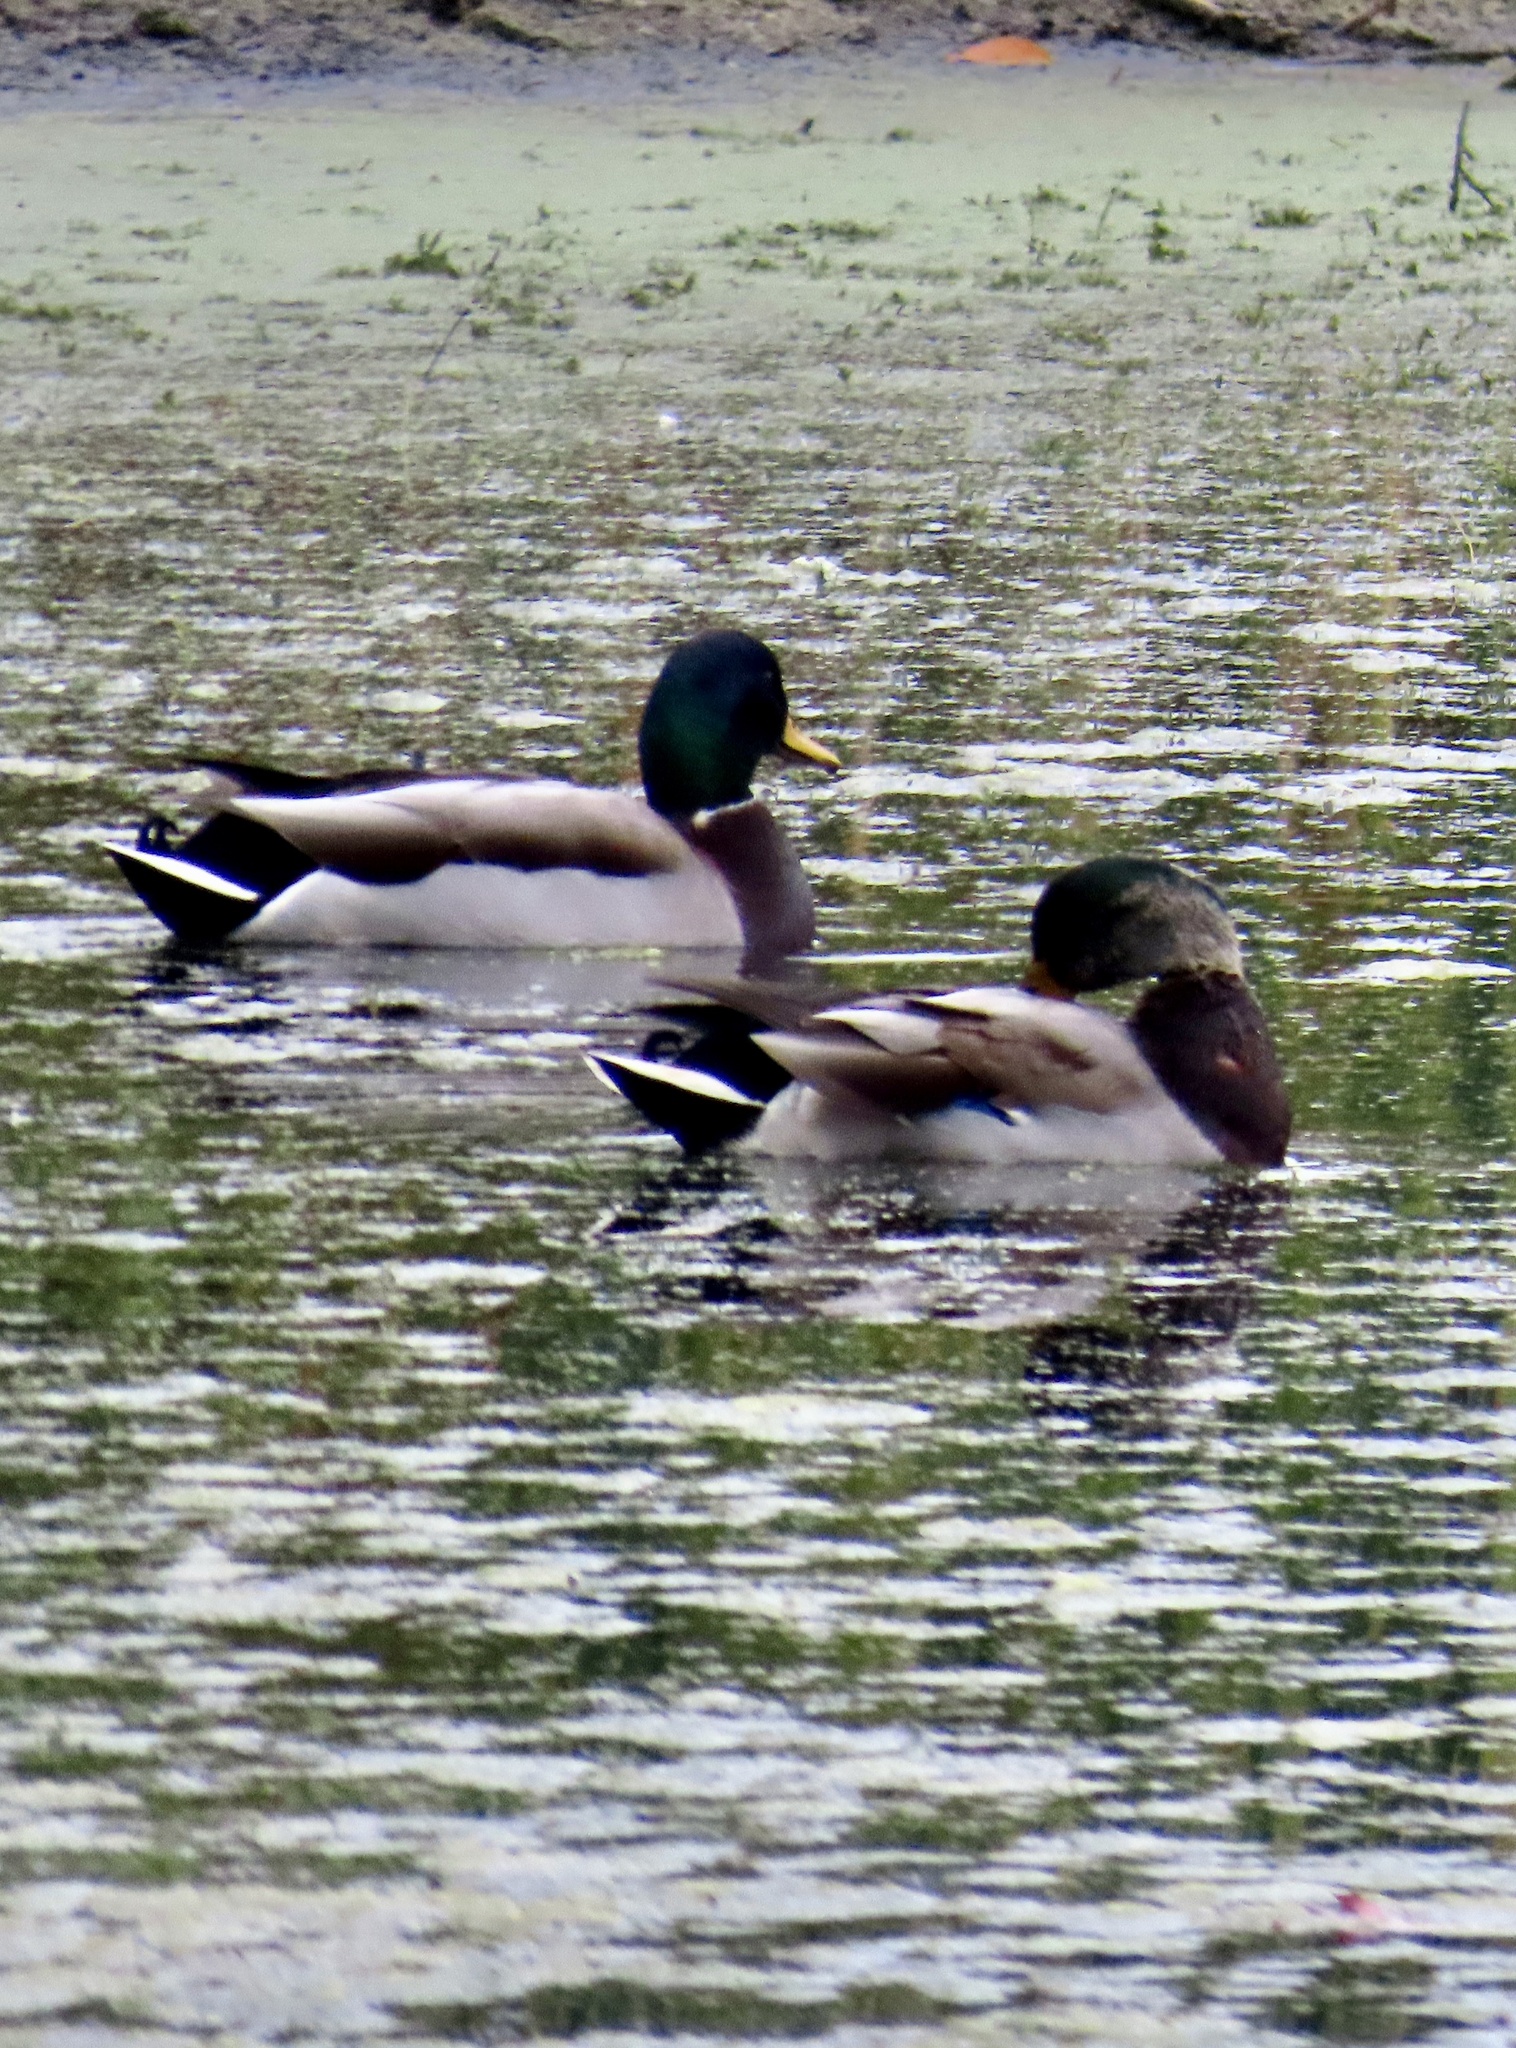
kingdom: Animalia
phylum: Chordata
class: Aves
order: Anseriformes
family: Anatidae
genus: Anas
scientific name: Anas platyrhynchos
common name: Mallard
